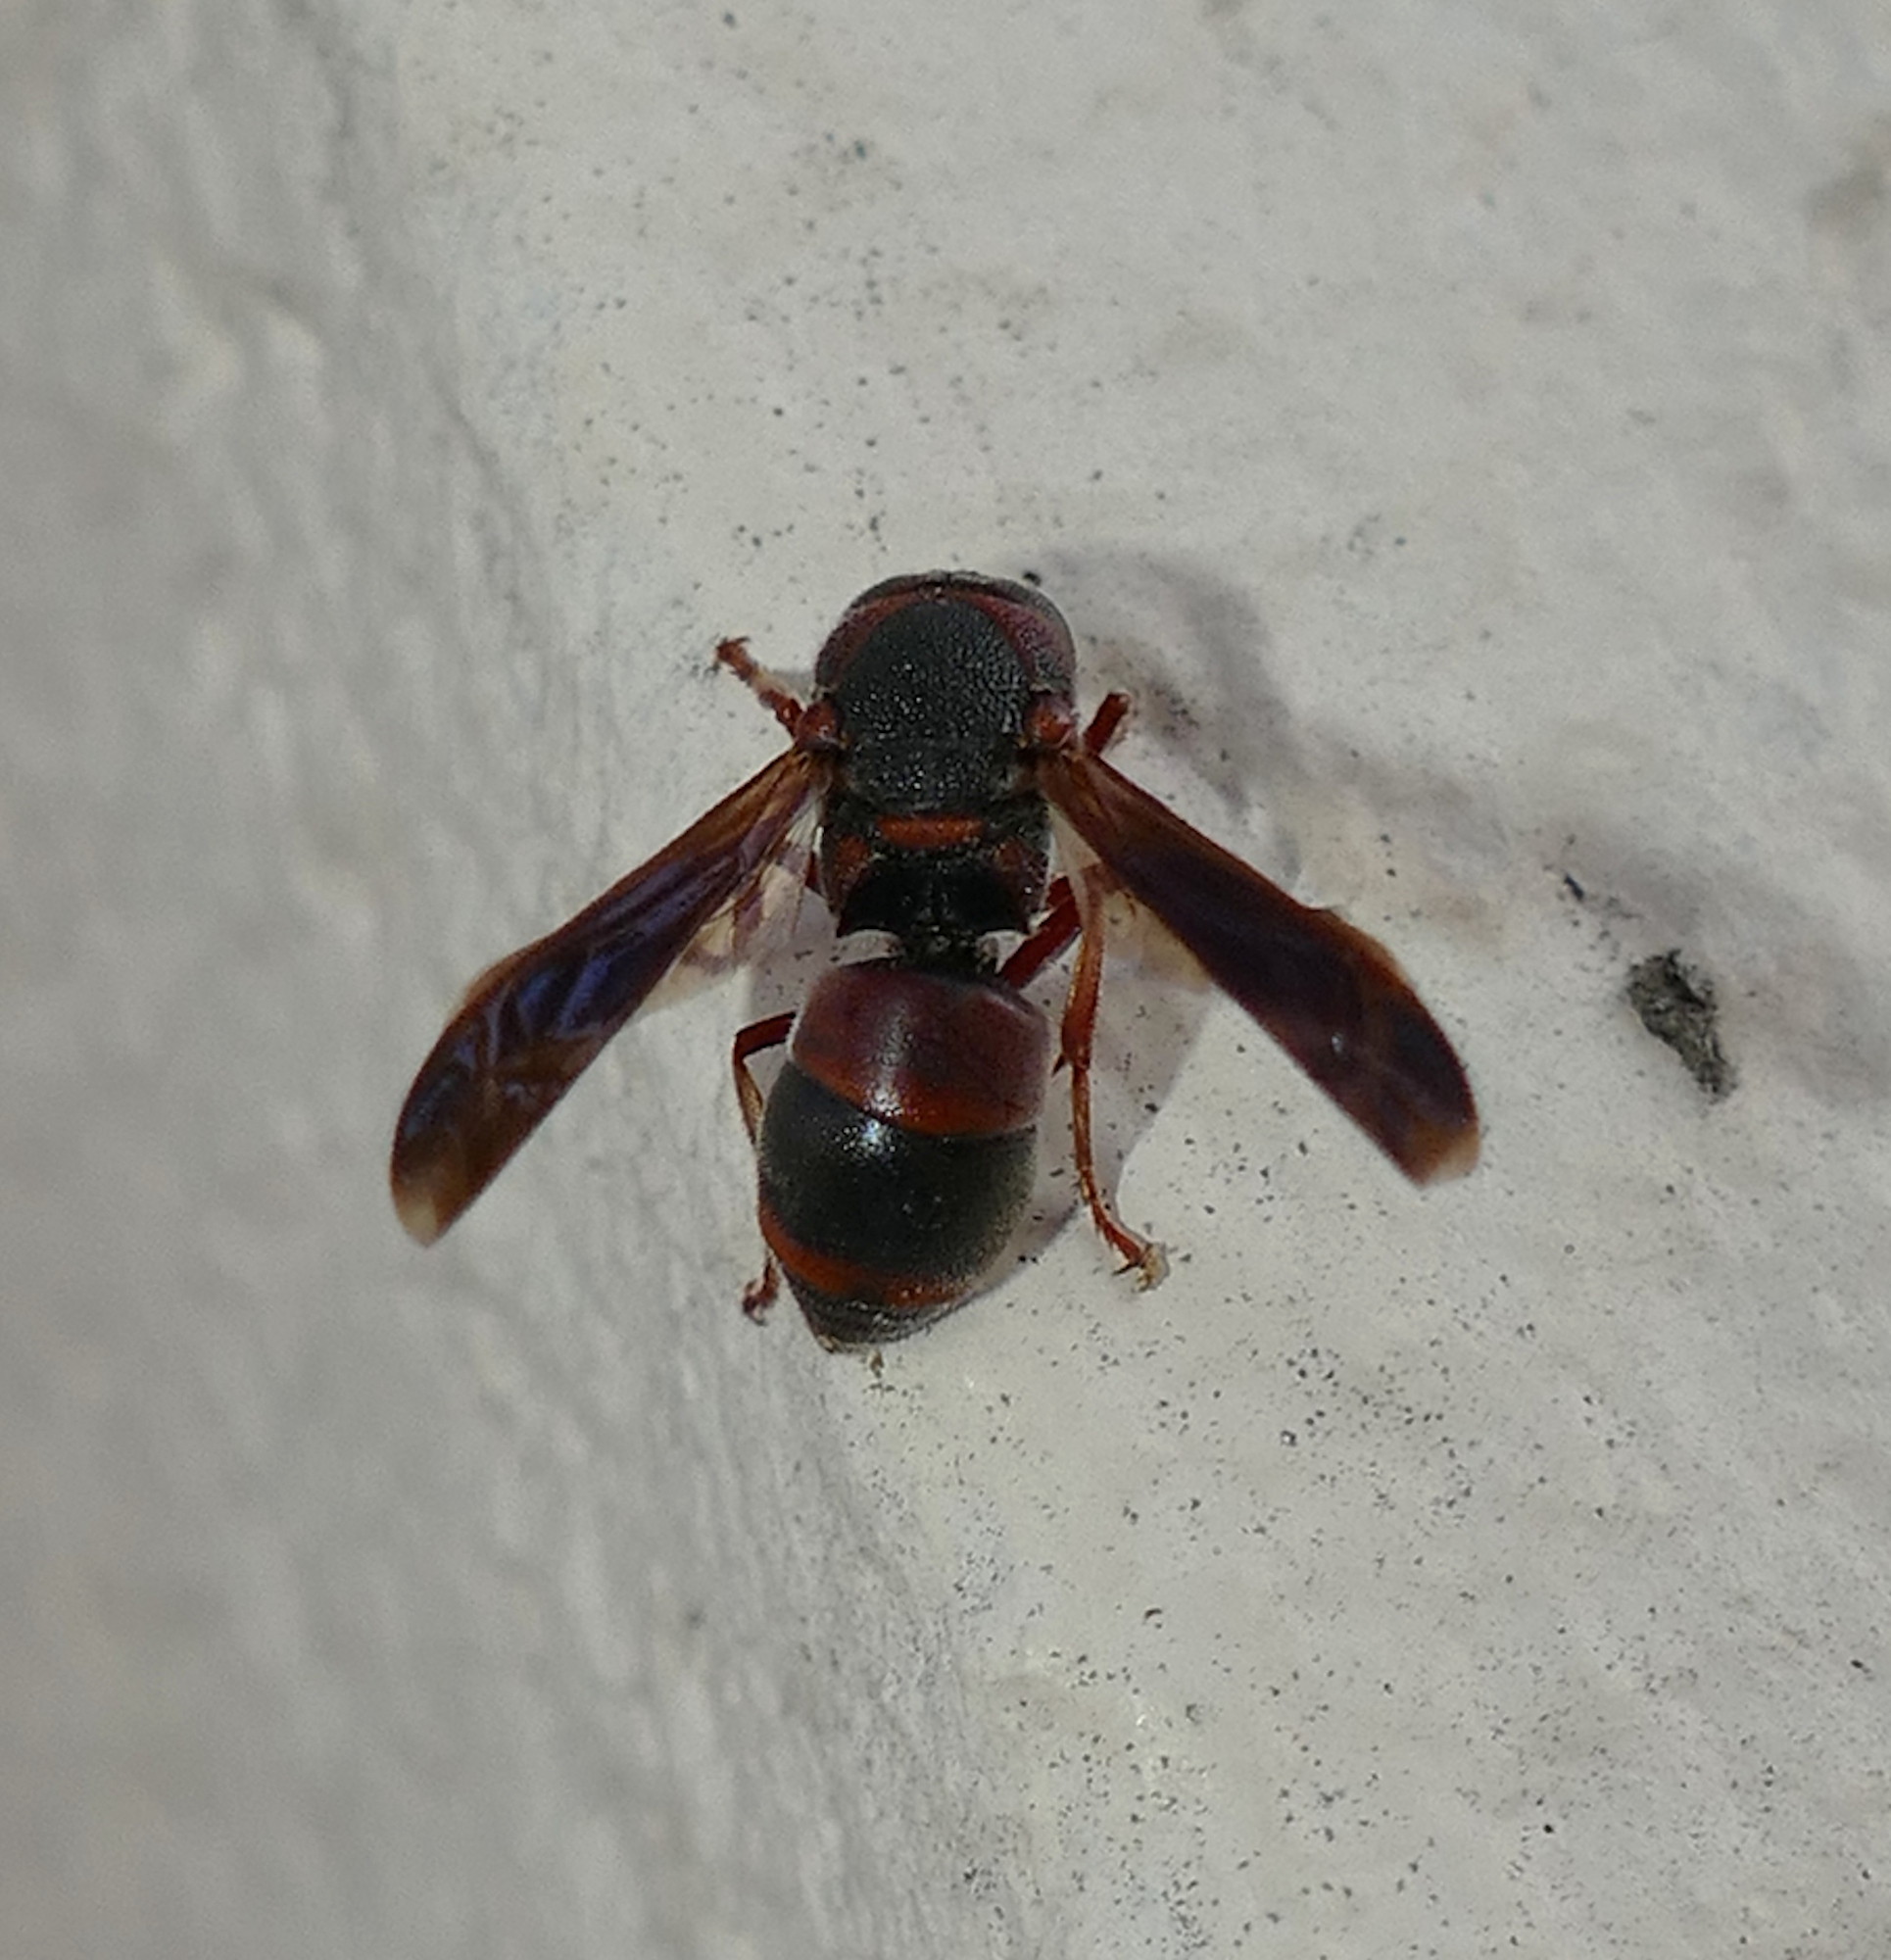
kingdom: Animalia
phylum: Arthropoda
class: Insecta
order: Hymenoptera
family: Eumenidae
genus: Pachodynerus
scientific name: Pachodynerus erynnis
